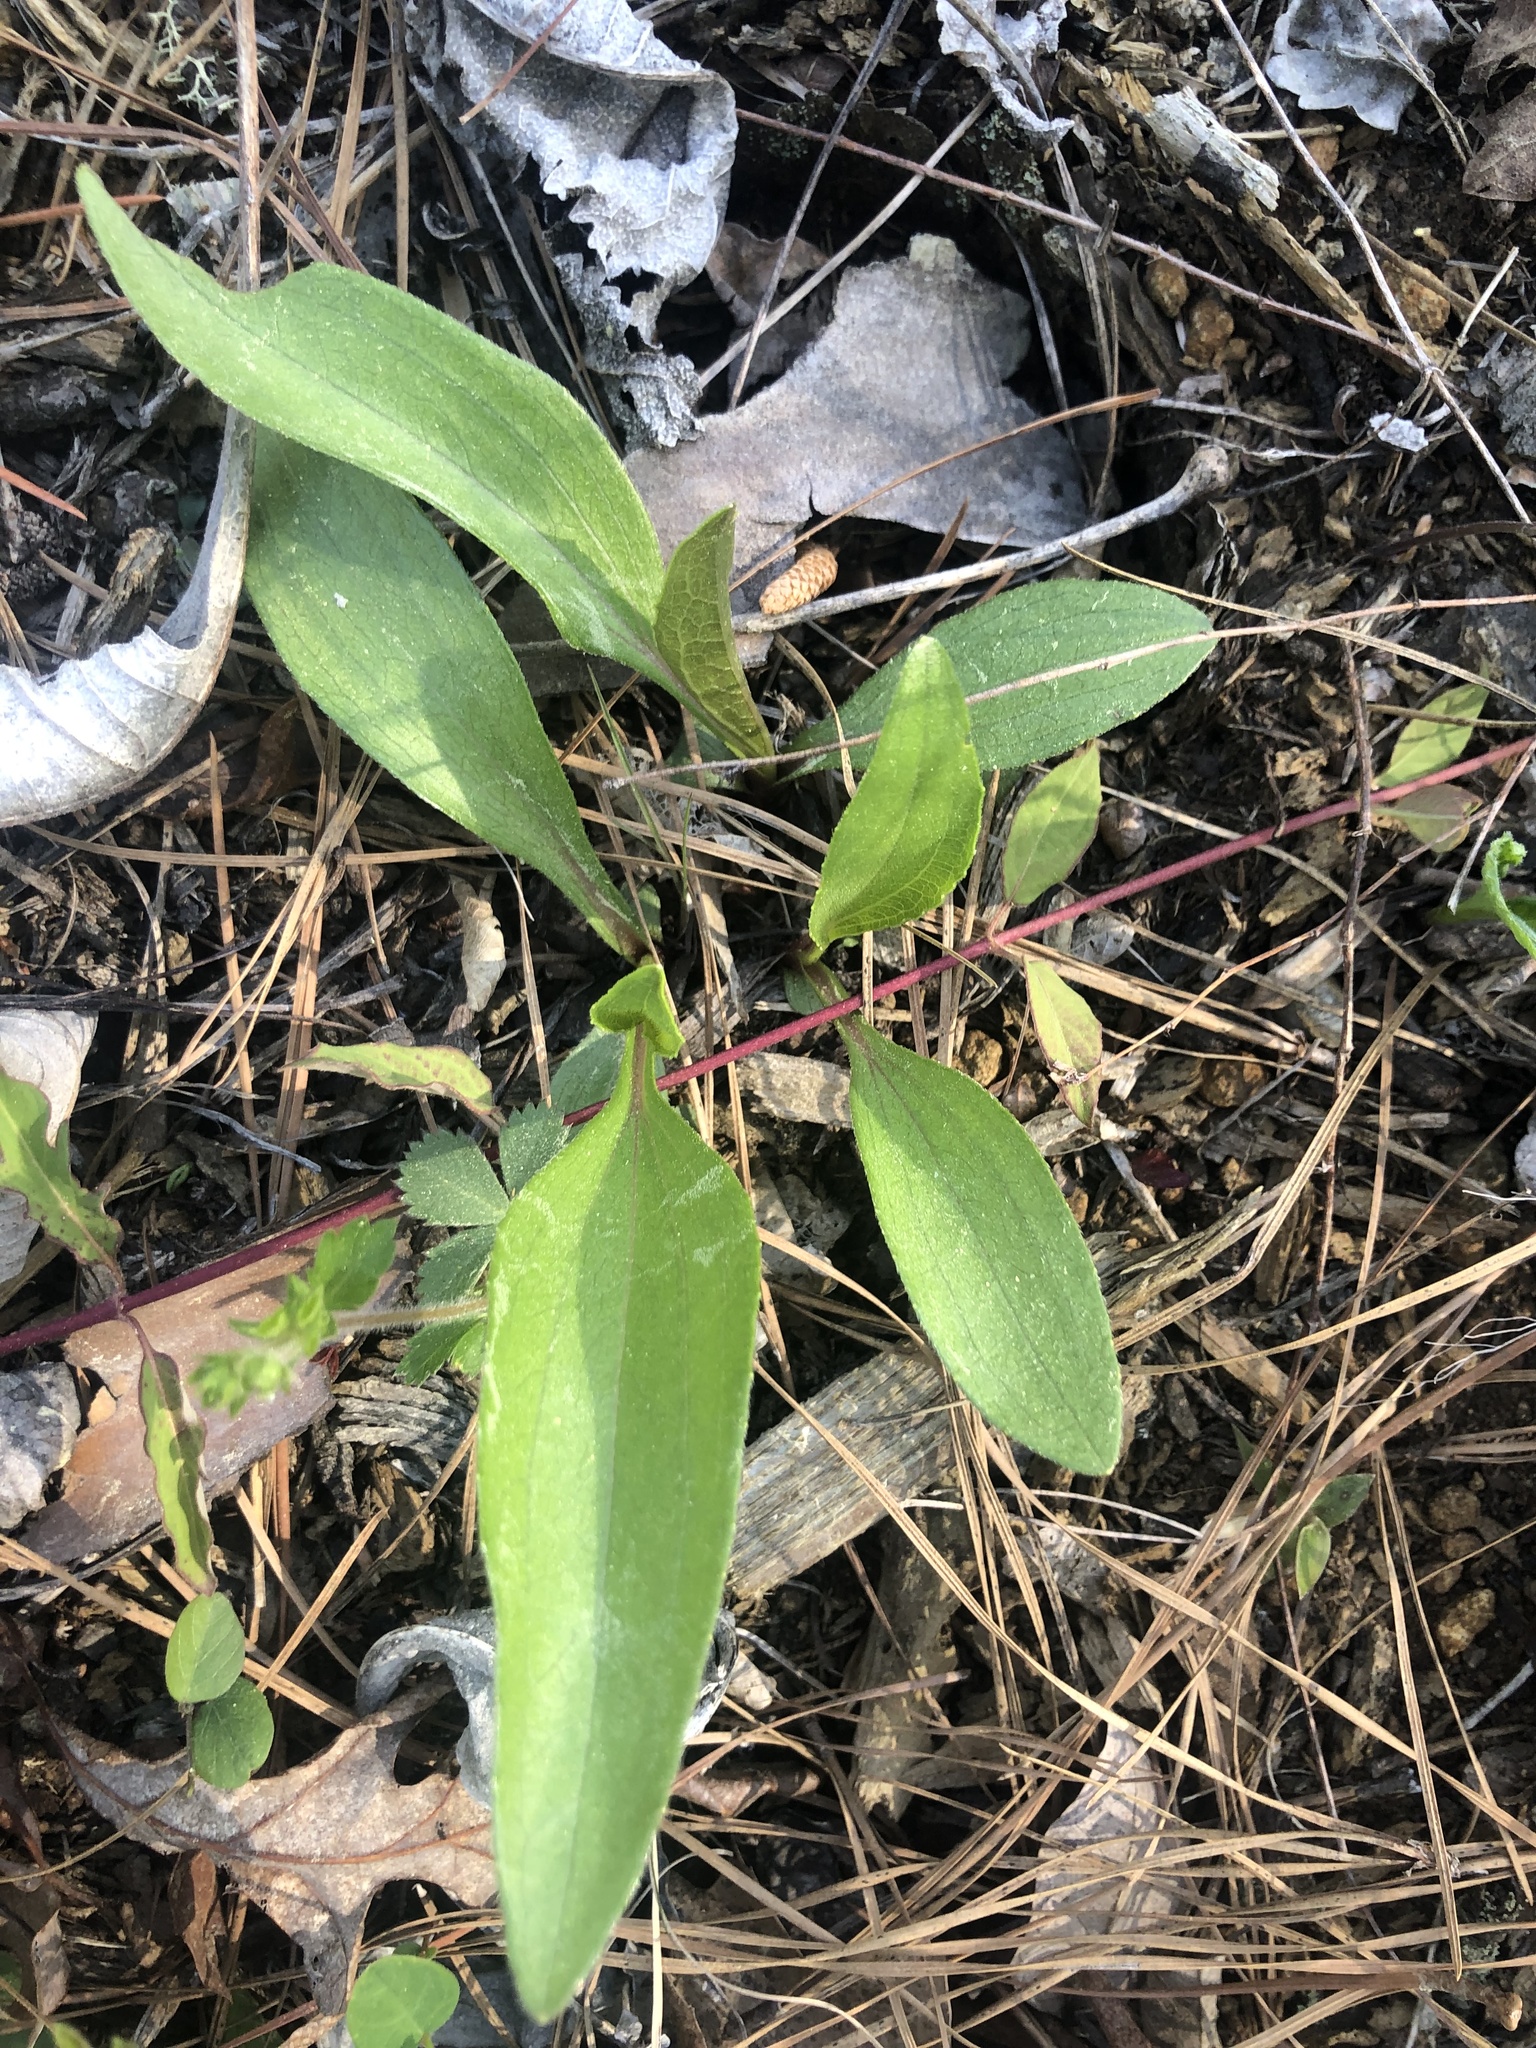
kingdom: Plantae
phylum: Tracheophyta
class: Magnoliopsida
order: Asterales
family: Asteraceae
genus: Echinacea
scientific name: Echinacea laevigata
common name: Smooth coneflower
